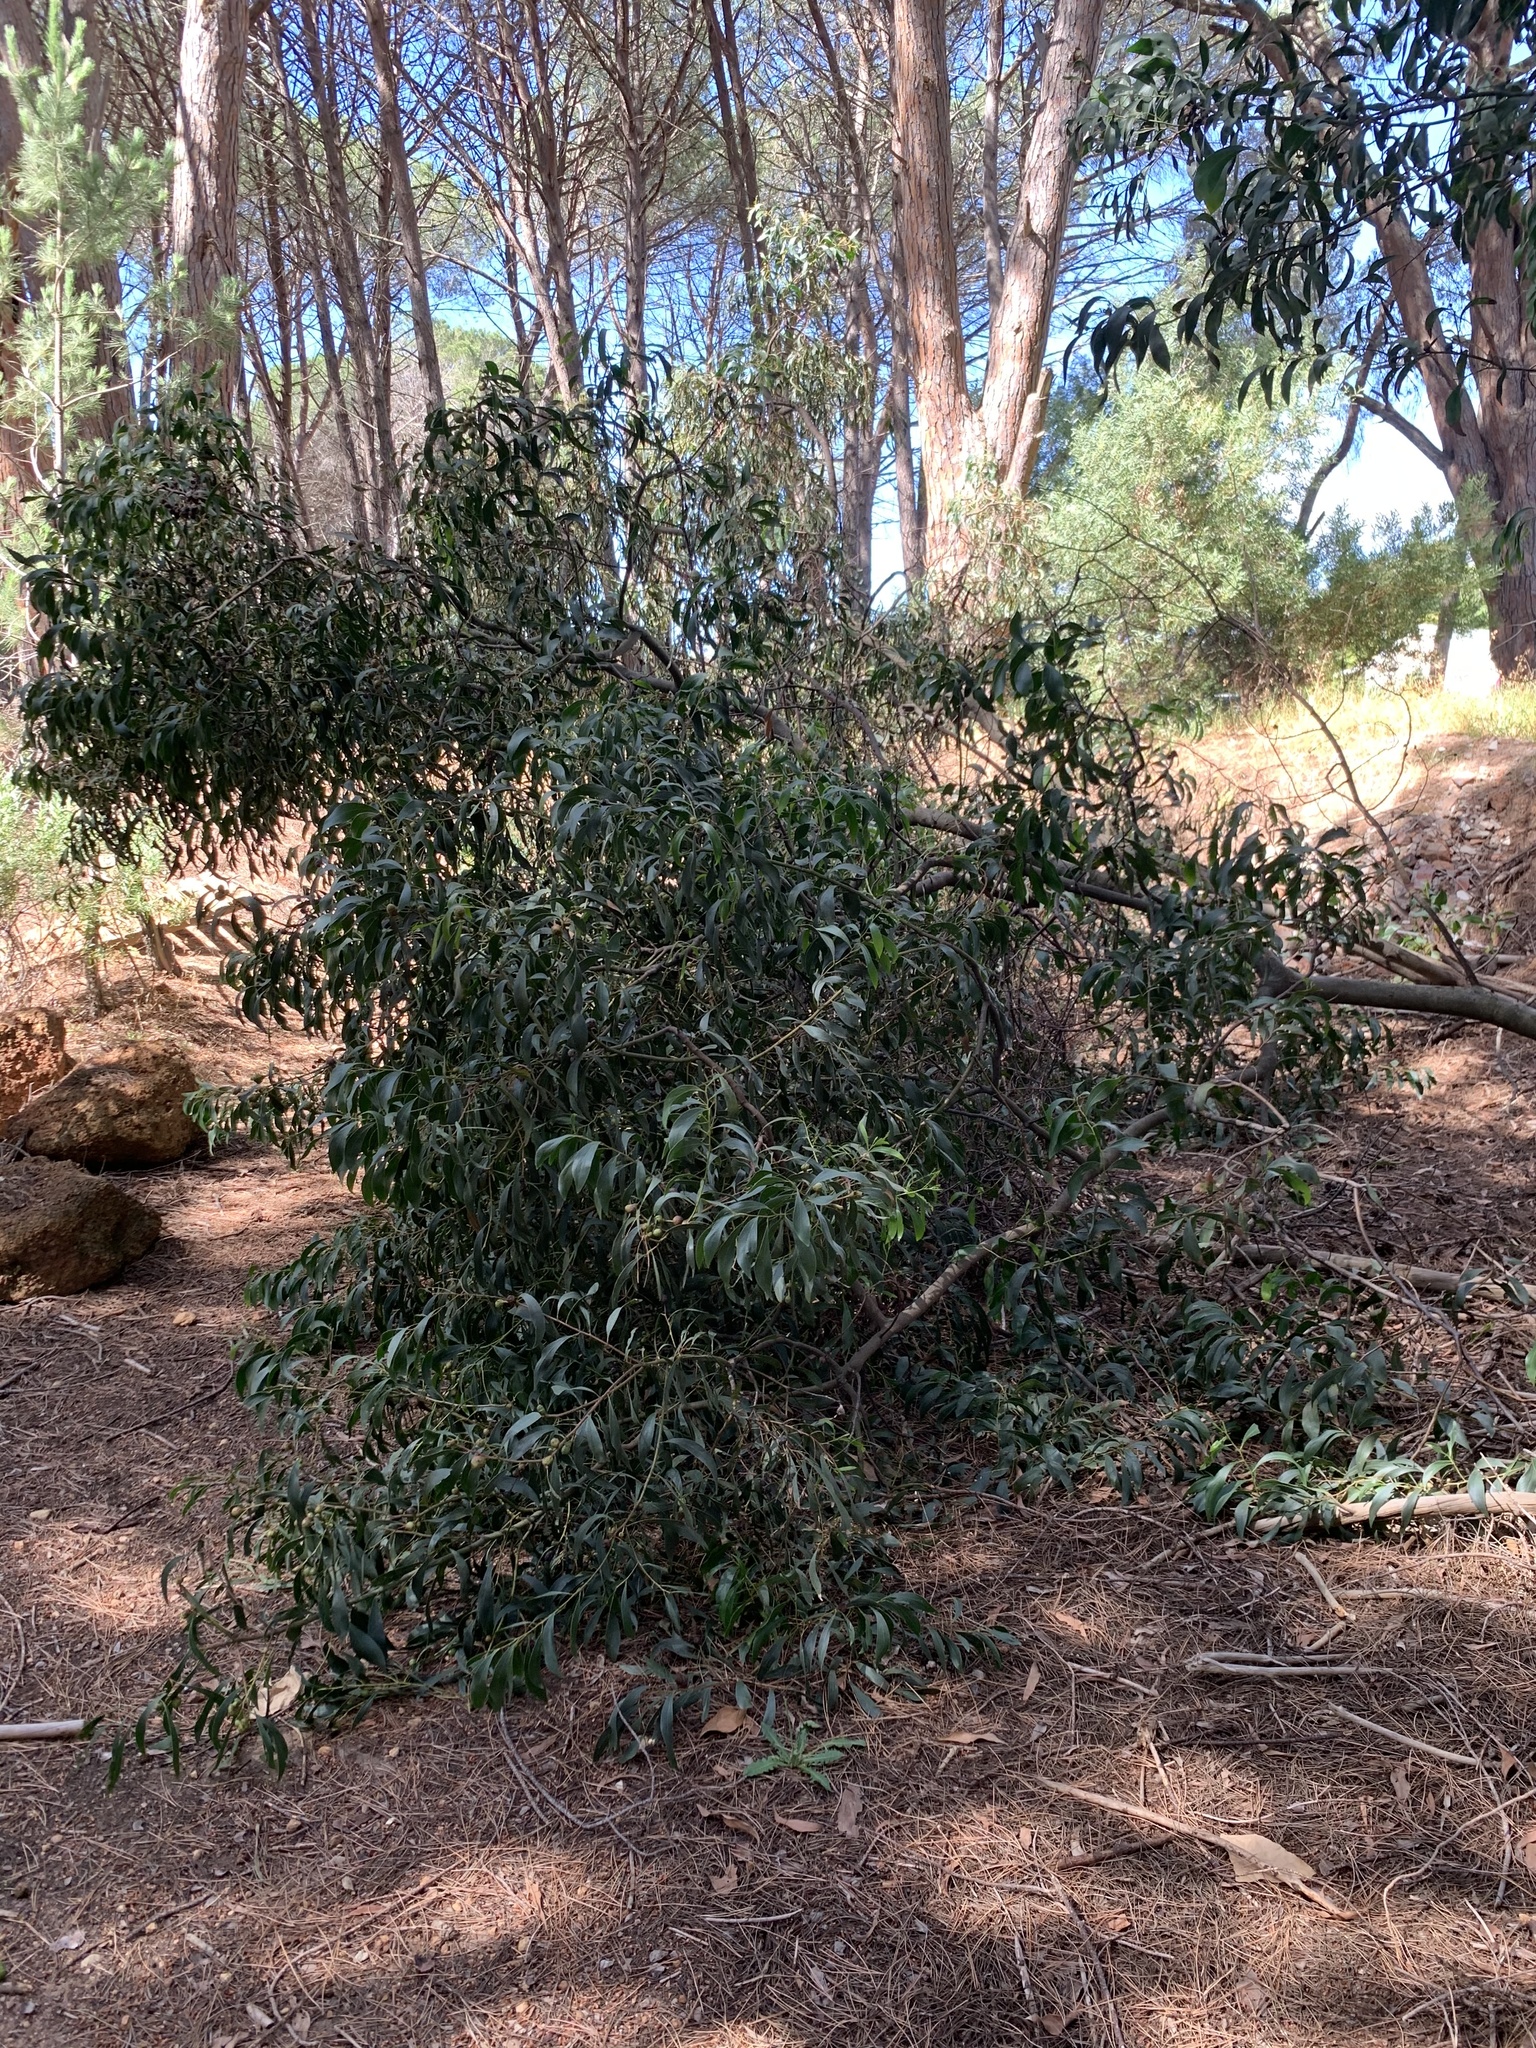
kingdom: Plantae
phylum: Tracheophyta
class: Magnoliopsida
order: Fabales
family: Fabaceae
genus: Acacia
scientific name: Acacia pycnantha
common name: Golden wattle
